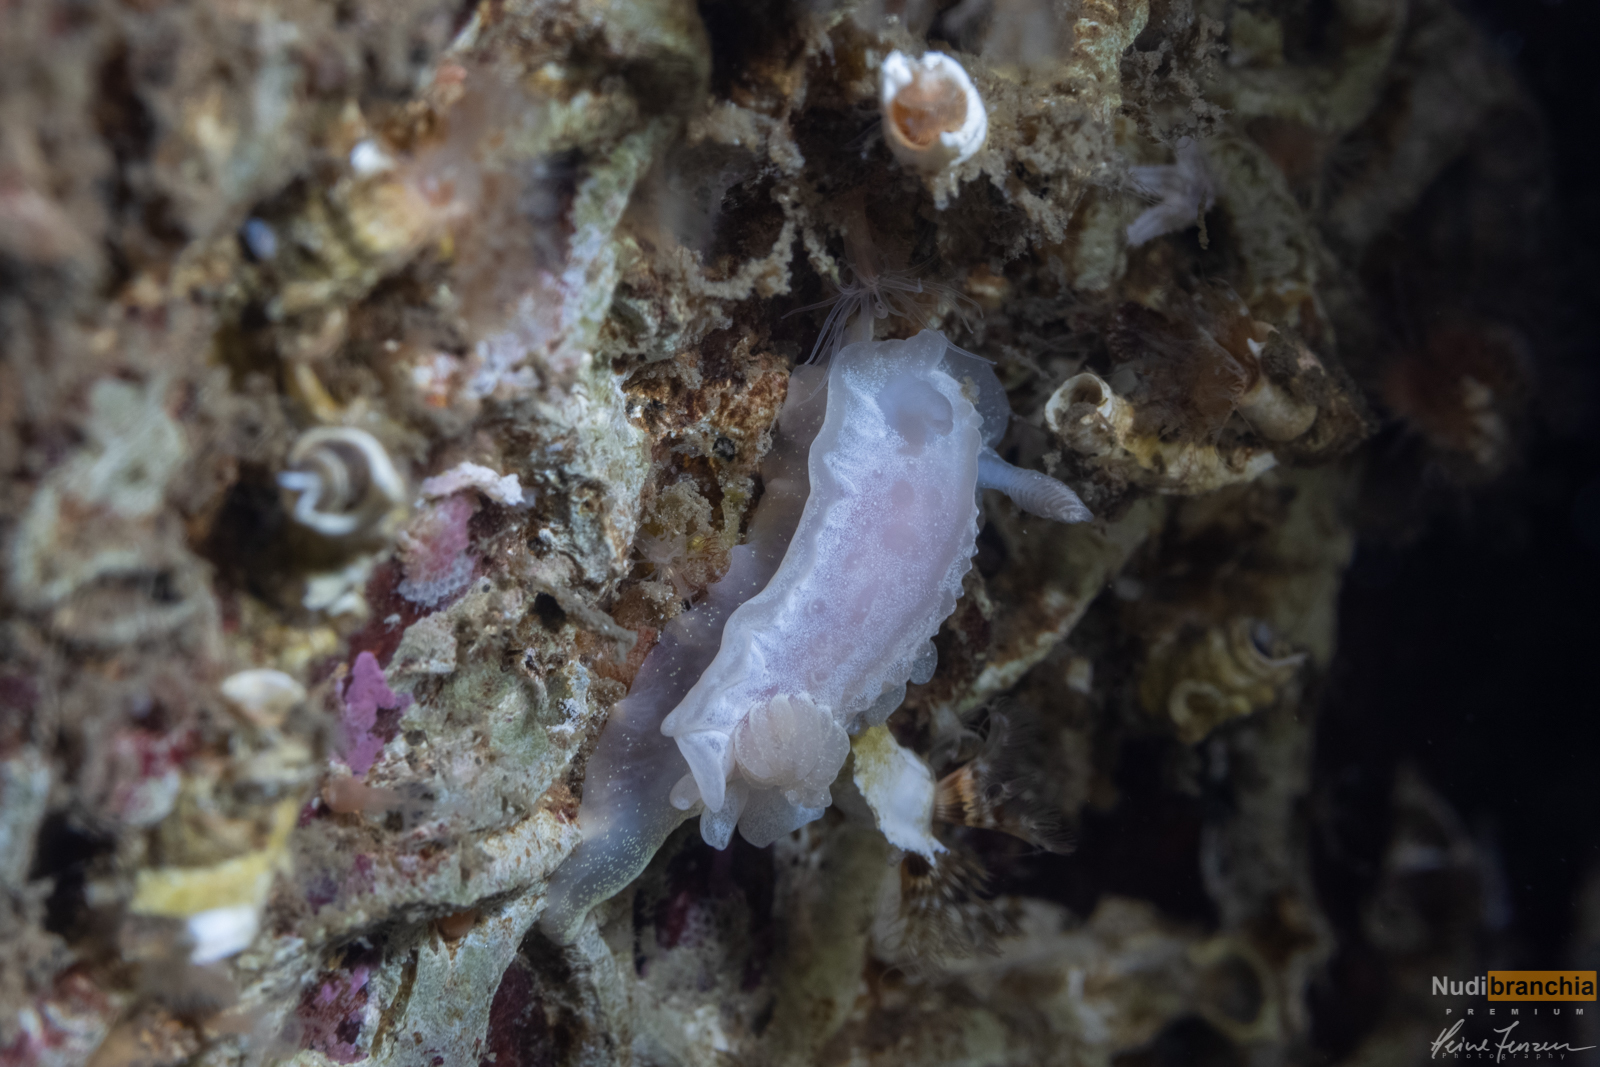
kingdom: Animalia
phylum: Mollusca
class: Gastropoda
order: Nudibranchia
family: Goniodorididae
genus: Okenia
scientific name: Okenia
